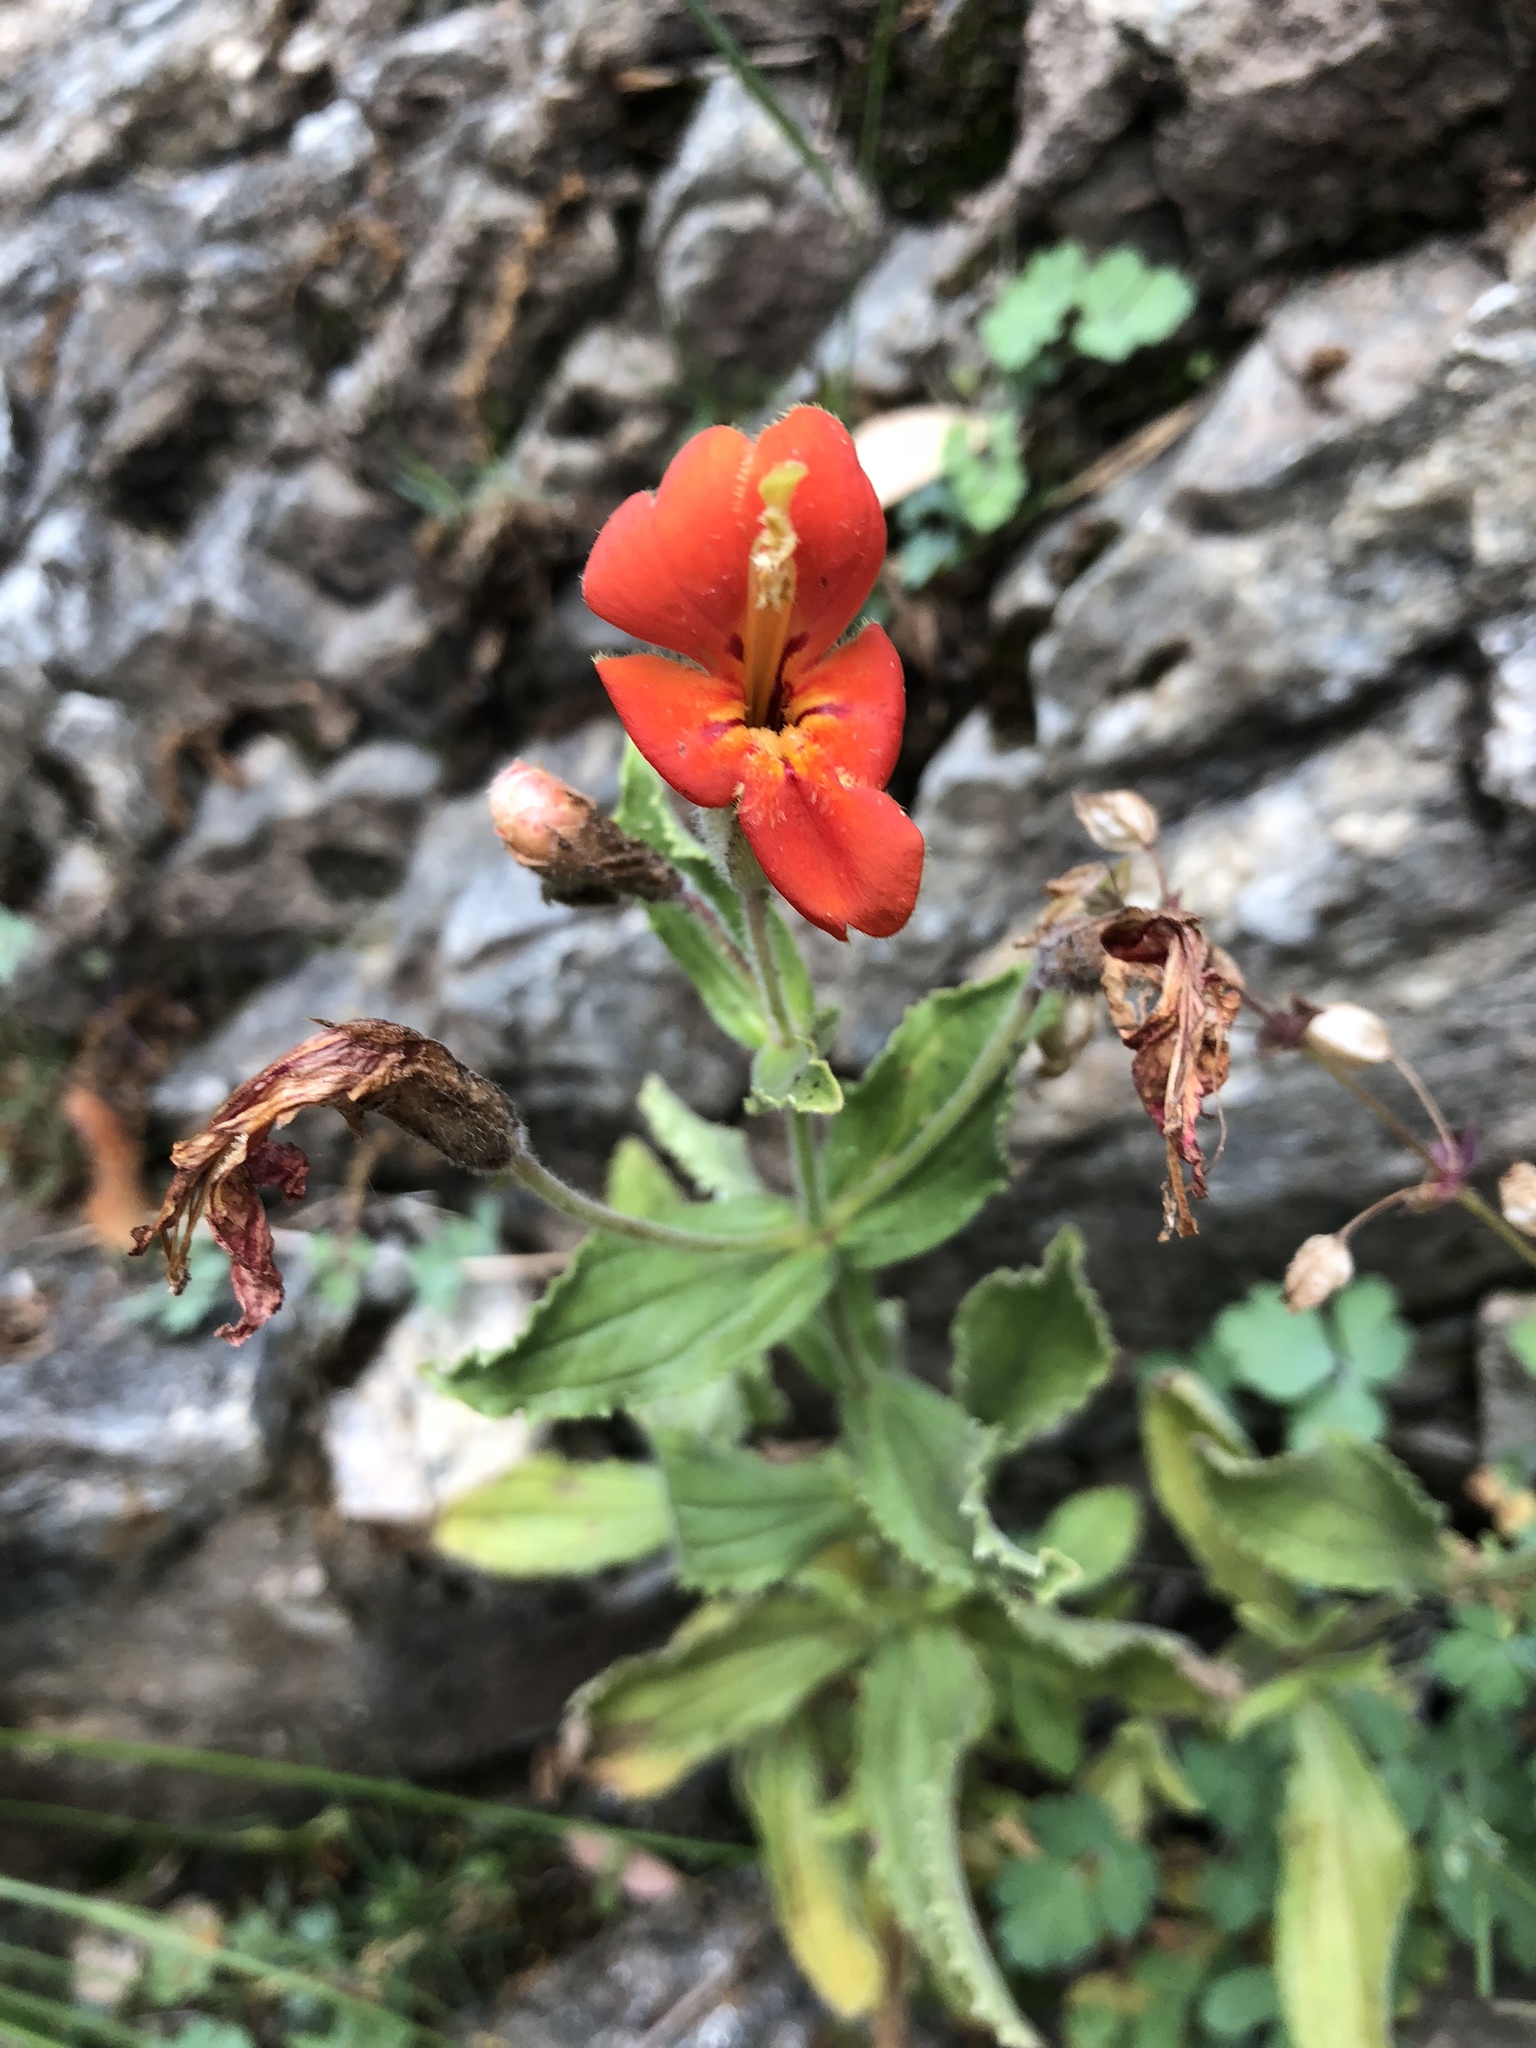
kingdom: Plantae
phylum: Tracheophyta
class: Magnoliopsida
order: Lamiales
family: Phrymaceae
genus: Erythranthe
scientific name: Erythranthe cardinalis
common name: Scarlet monkey-flower
